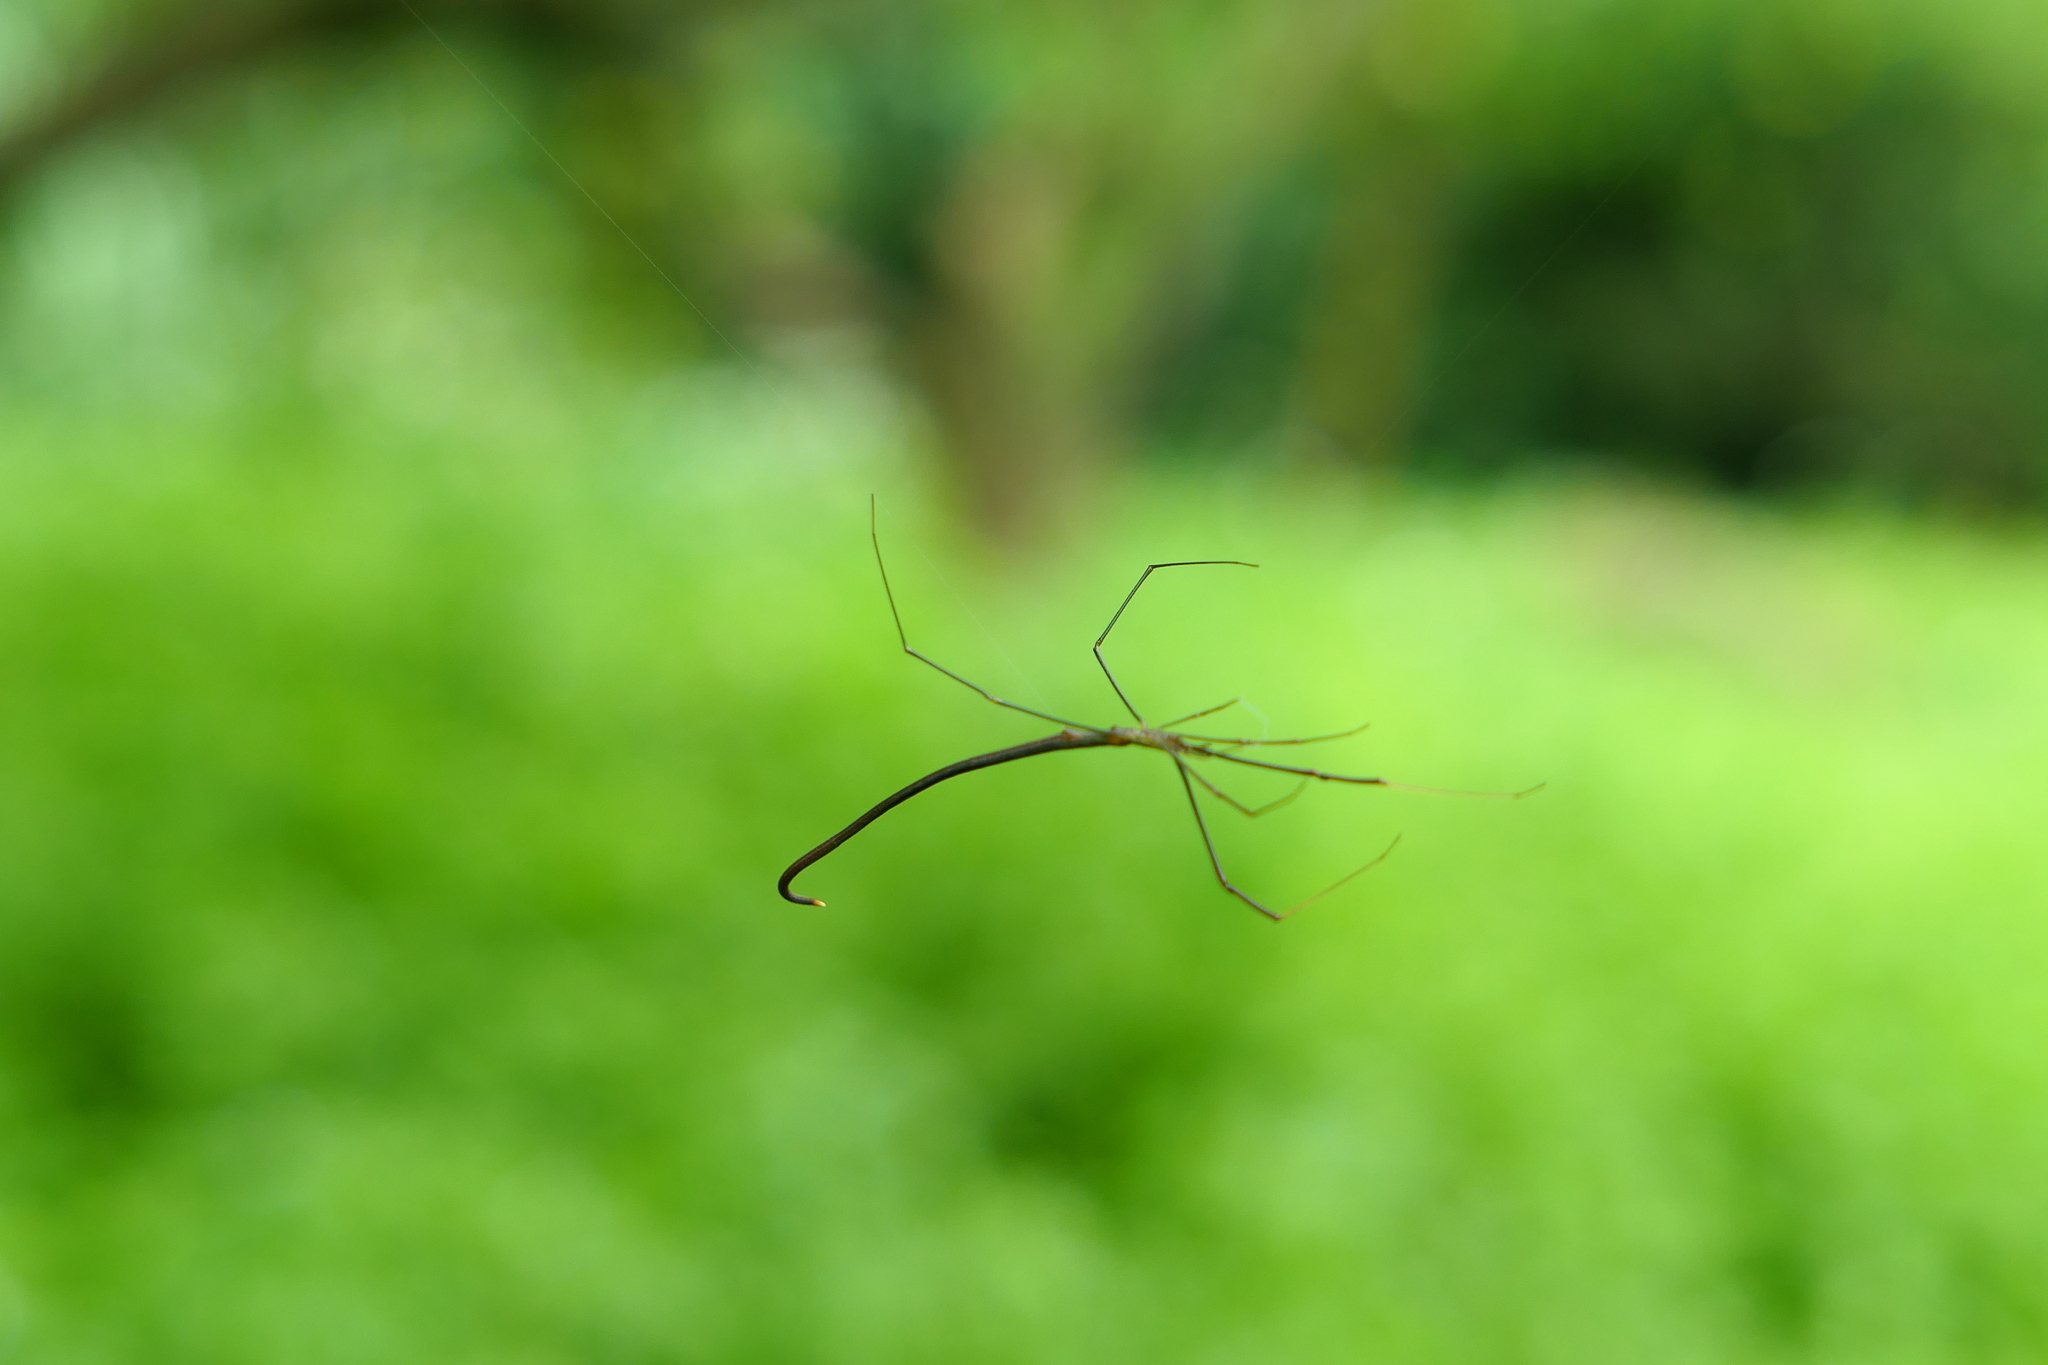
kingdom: Animalia
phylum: Arthropoda
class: Arachnida
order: Araneae
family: Theridiidae
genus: Ariamnes
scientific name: Ariamnes cylindrogaster
